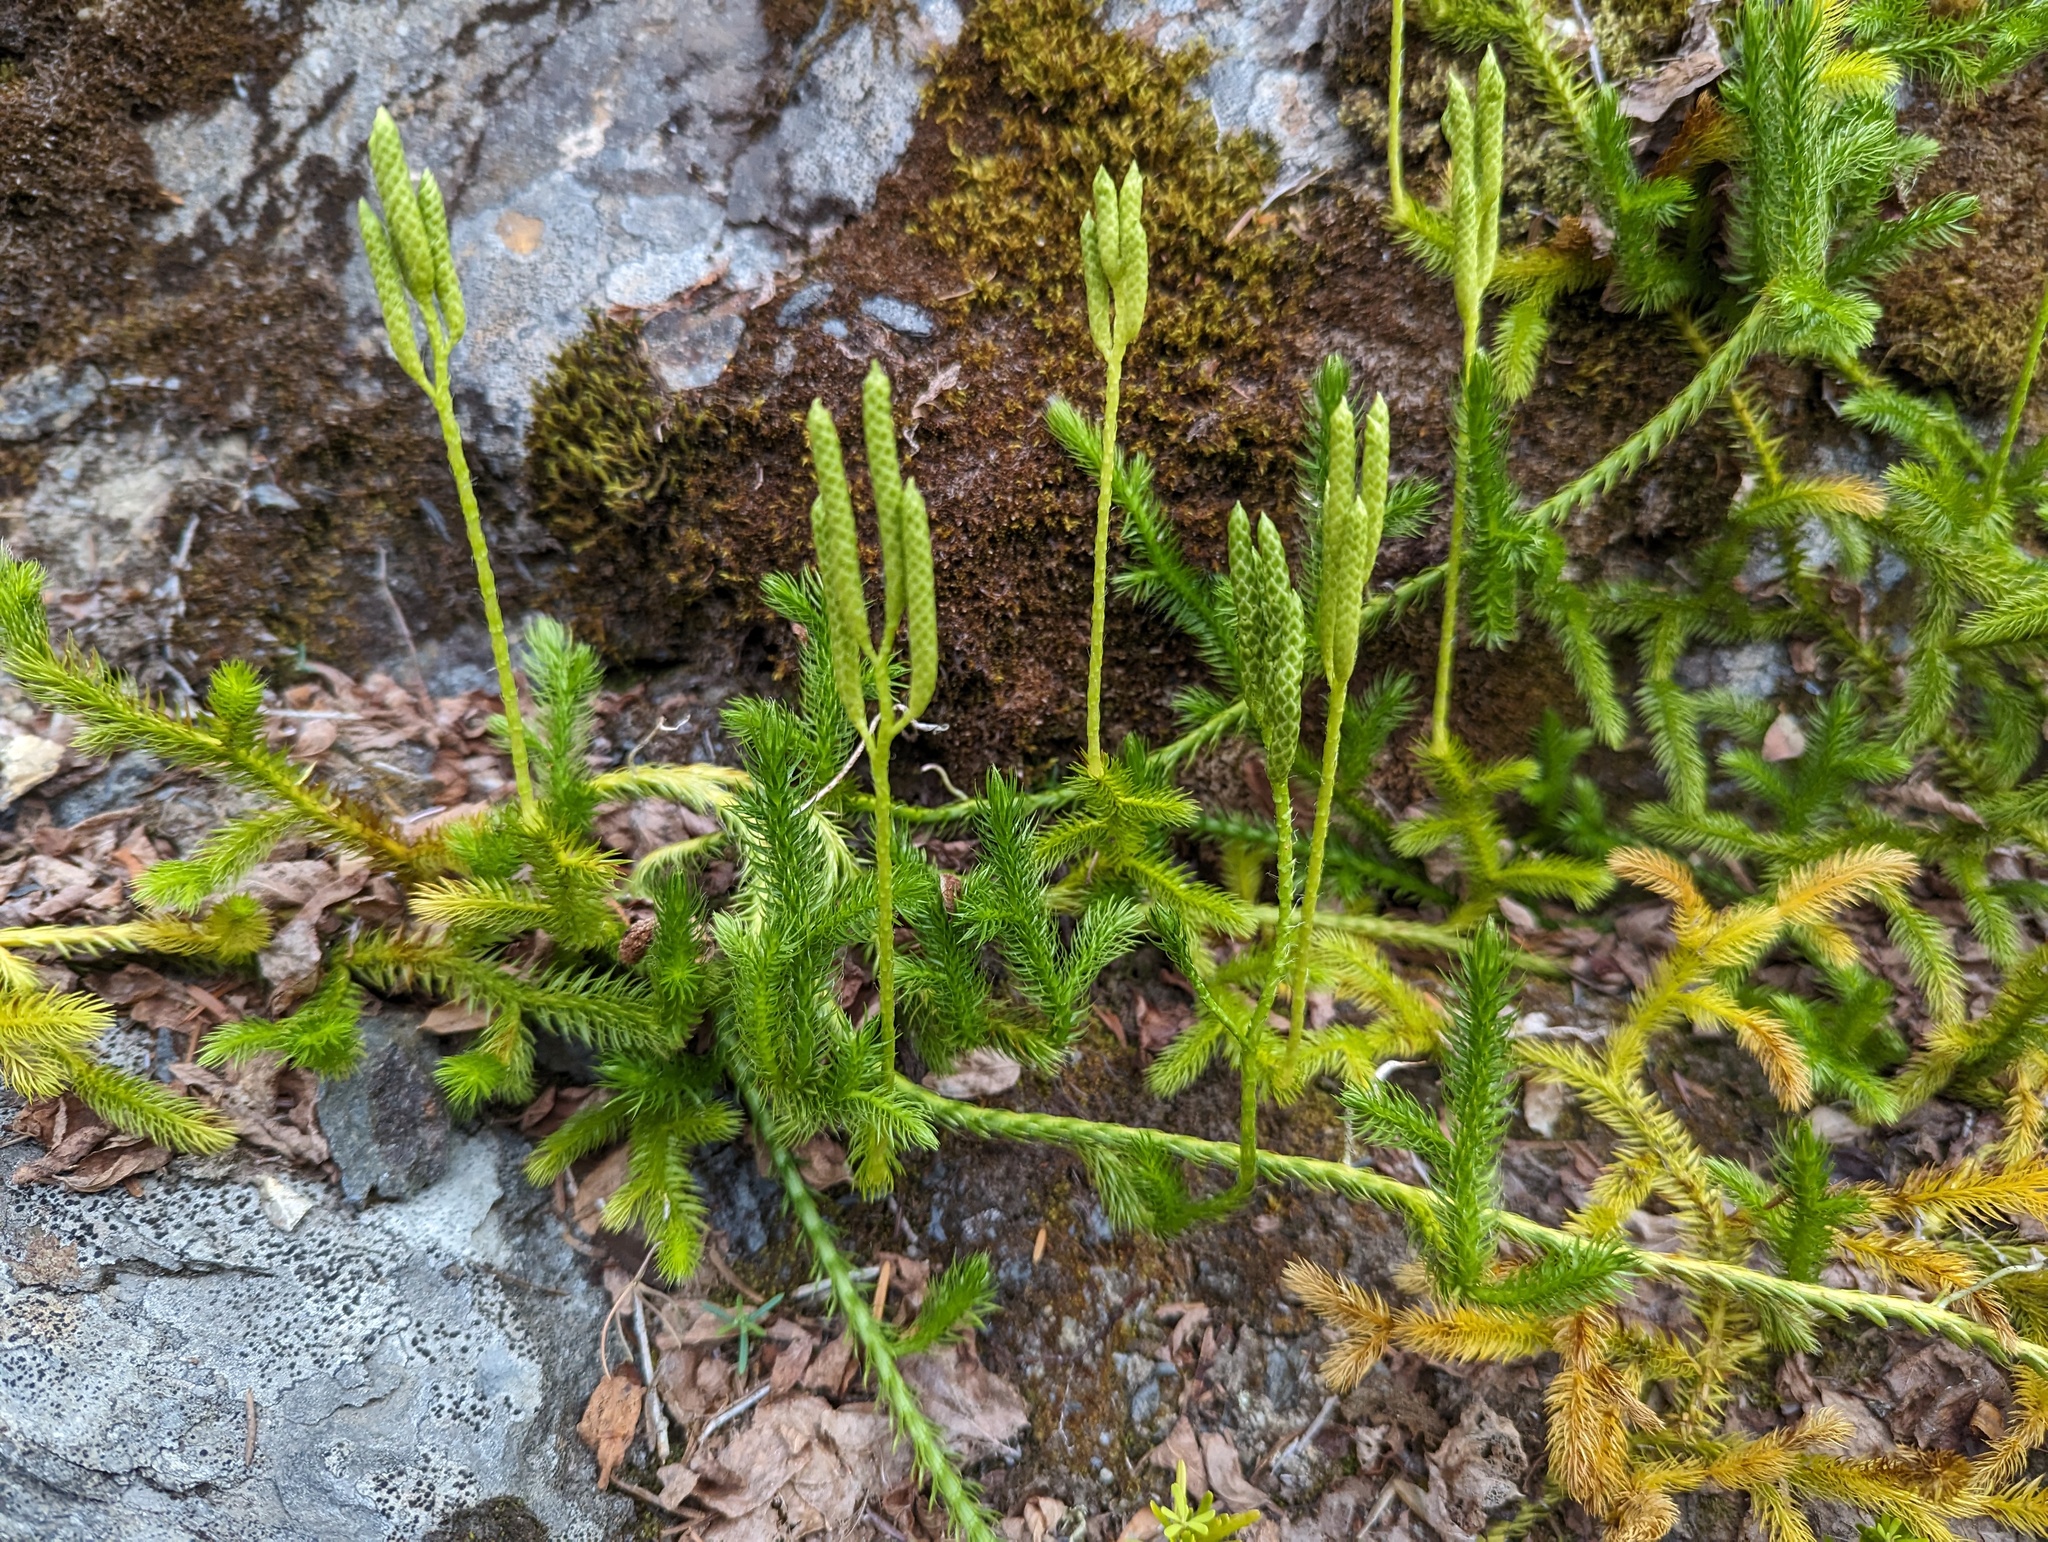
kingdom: Plantae
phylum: Tracheophyta
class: Lycopodiopsida
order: Lycopodiales
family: Lycopodiaceae
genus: Lycopodium
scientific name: Lycopodium clavatum
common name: Stag's-horn clubmoss
